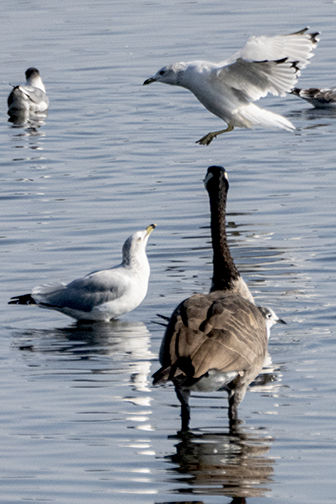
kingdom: Animalia
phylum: Chordata
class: Aves
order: Charadriiformes
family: Laridae
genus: Larus
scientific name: Larus delawarensis
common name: Ring-billed gull
